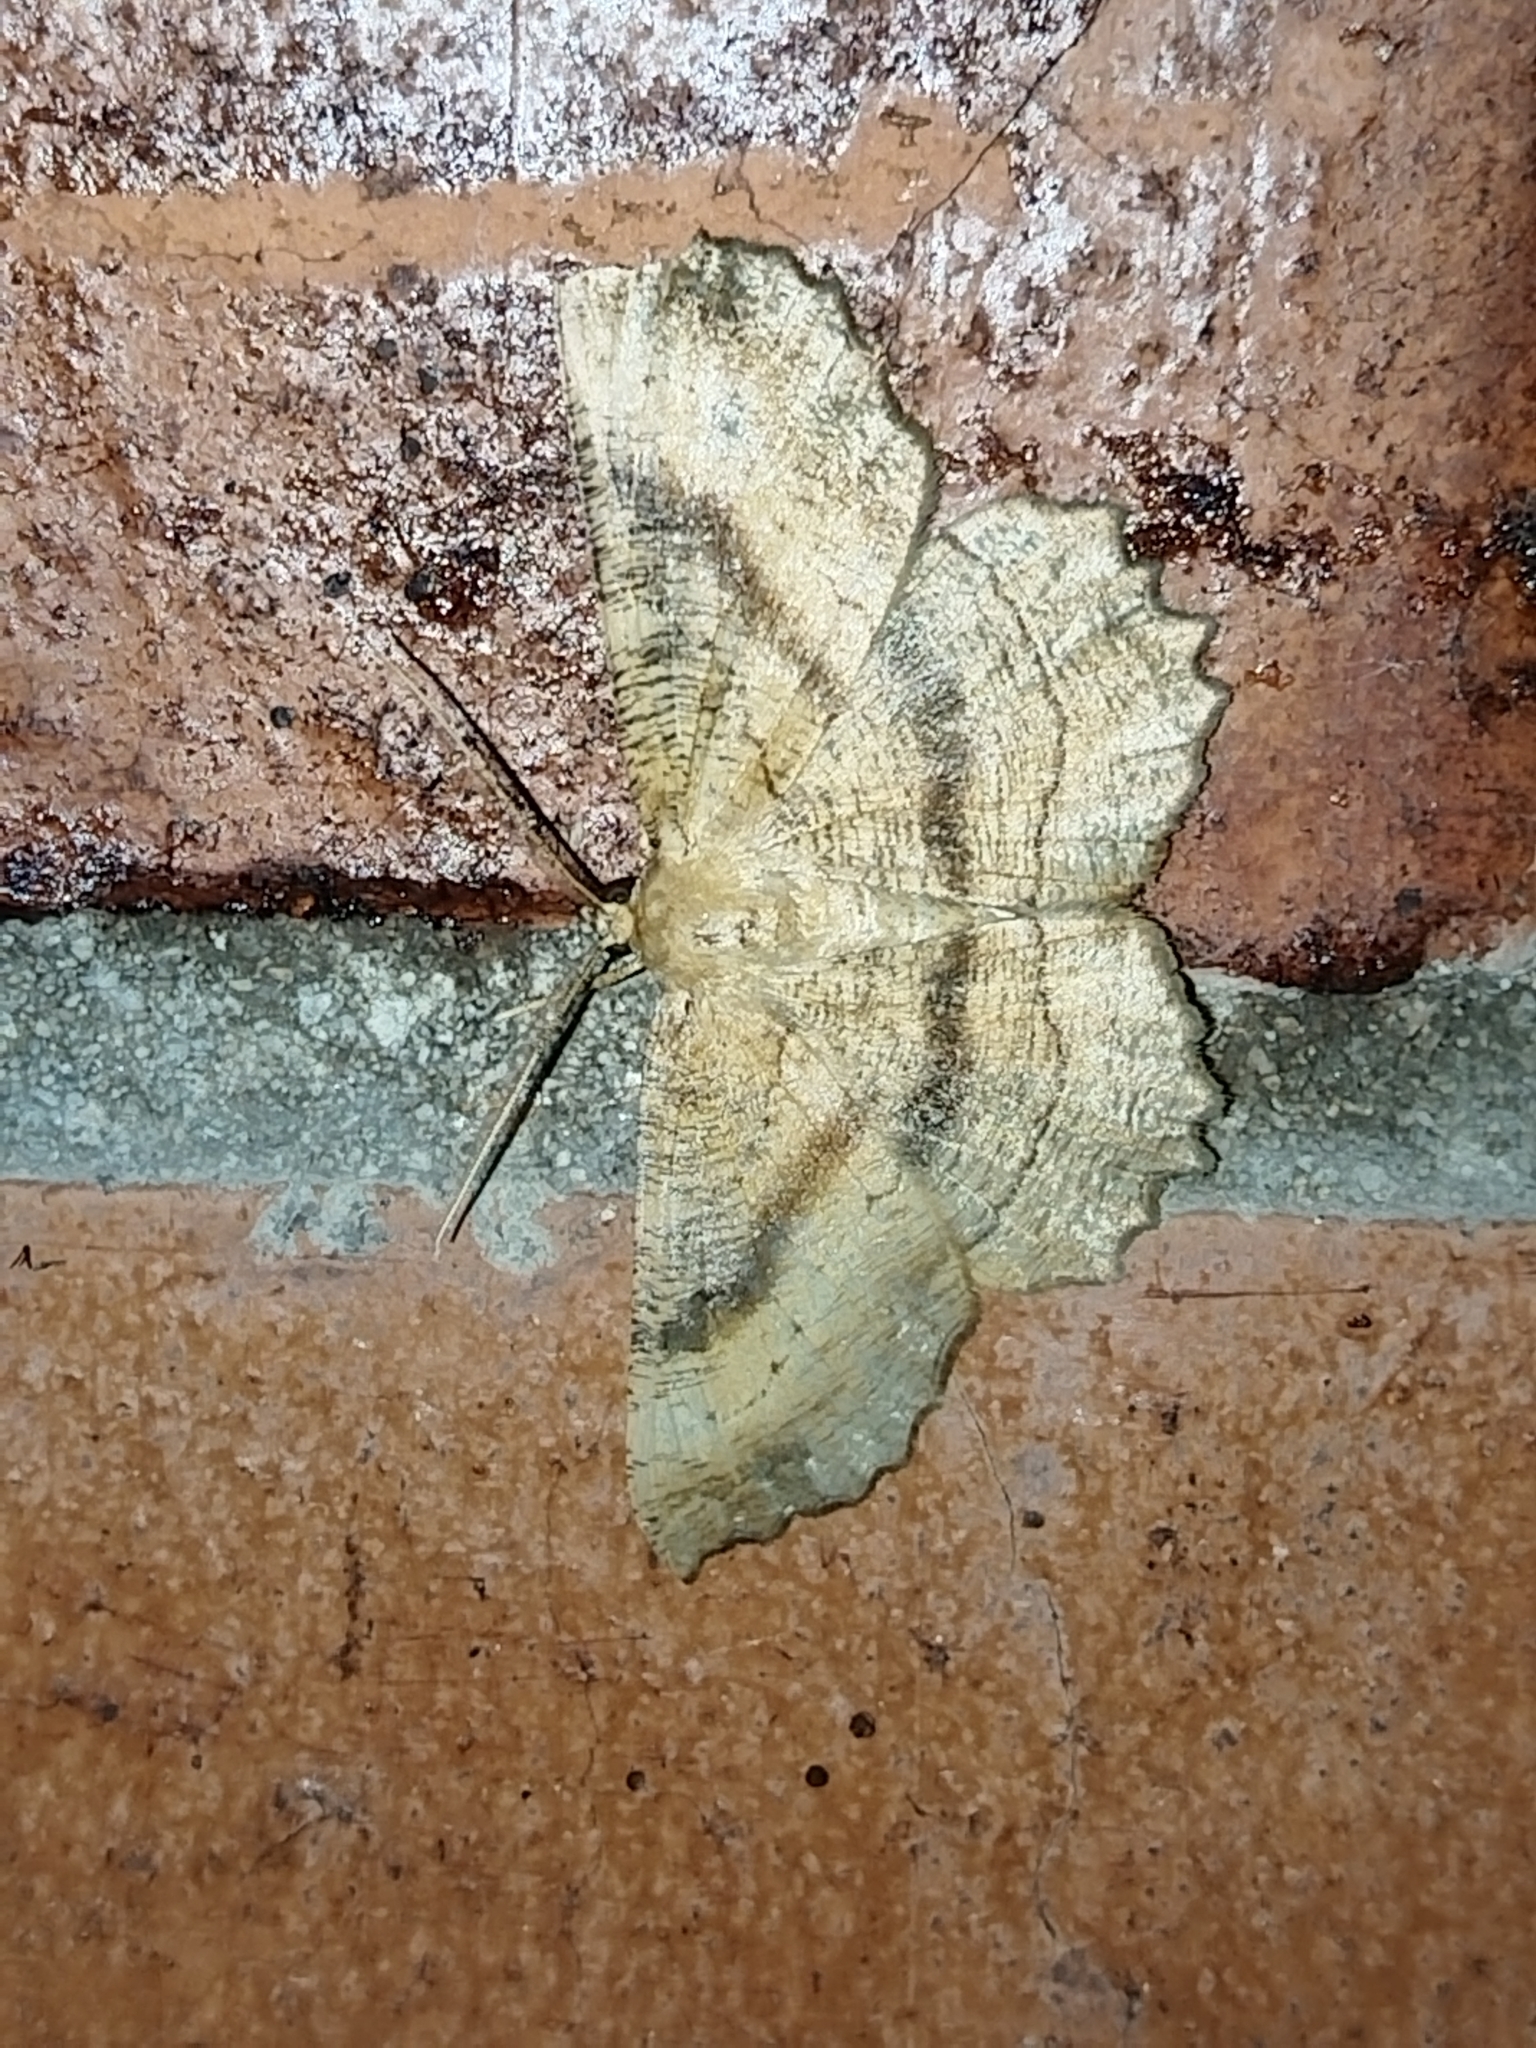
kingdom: Animalia
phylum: Arthropoda
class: Insecta
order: Lepidoptera
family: Geometridae
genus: Ctenognophos
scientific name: Ctenognophos grandinaria
